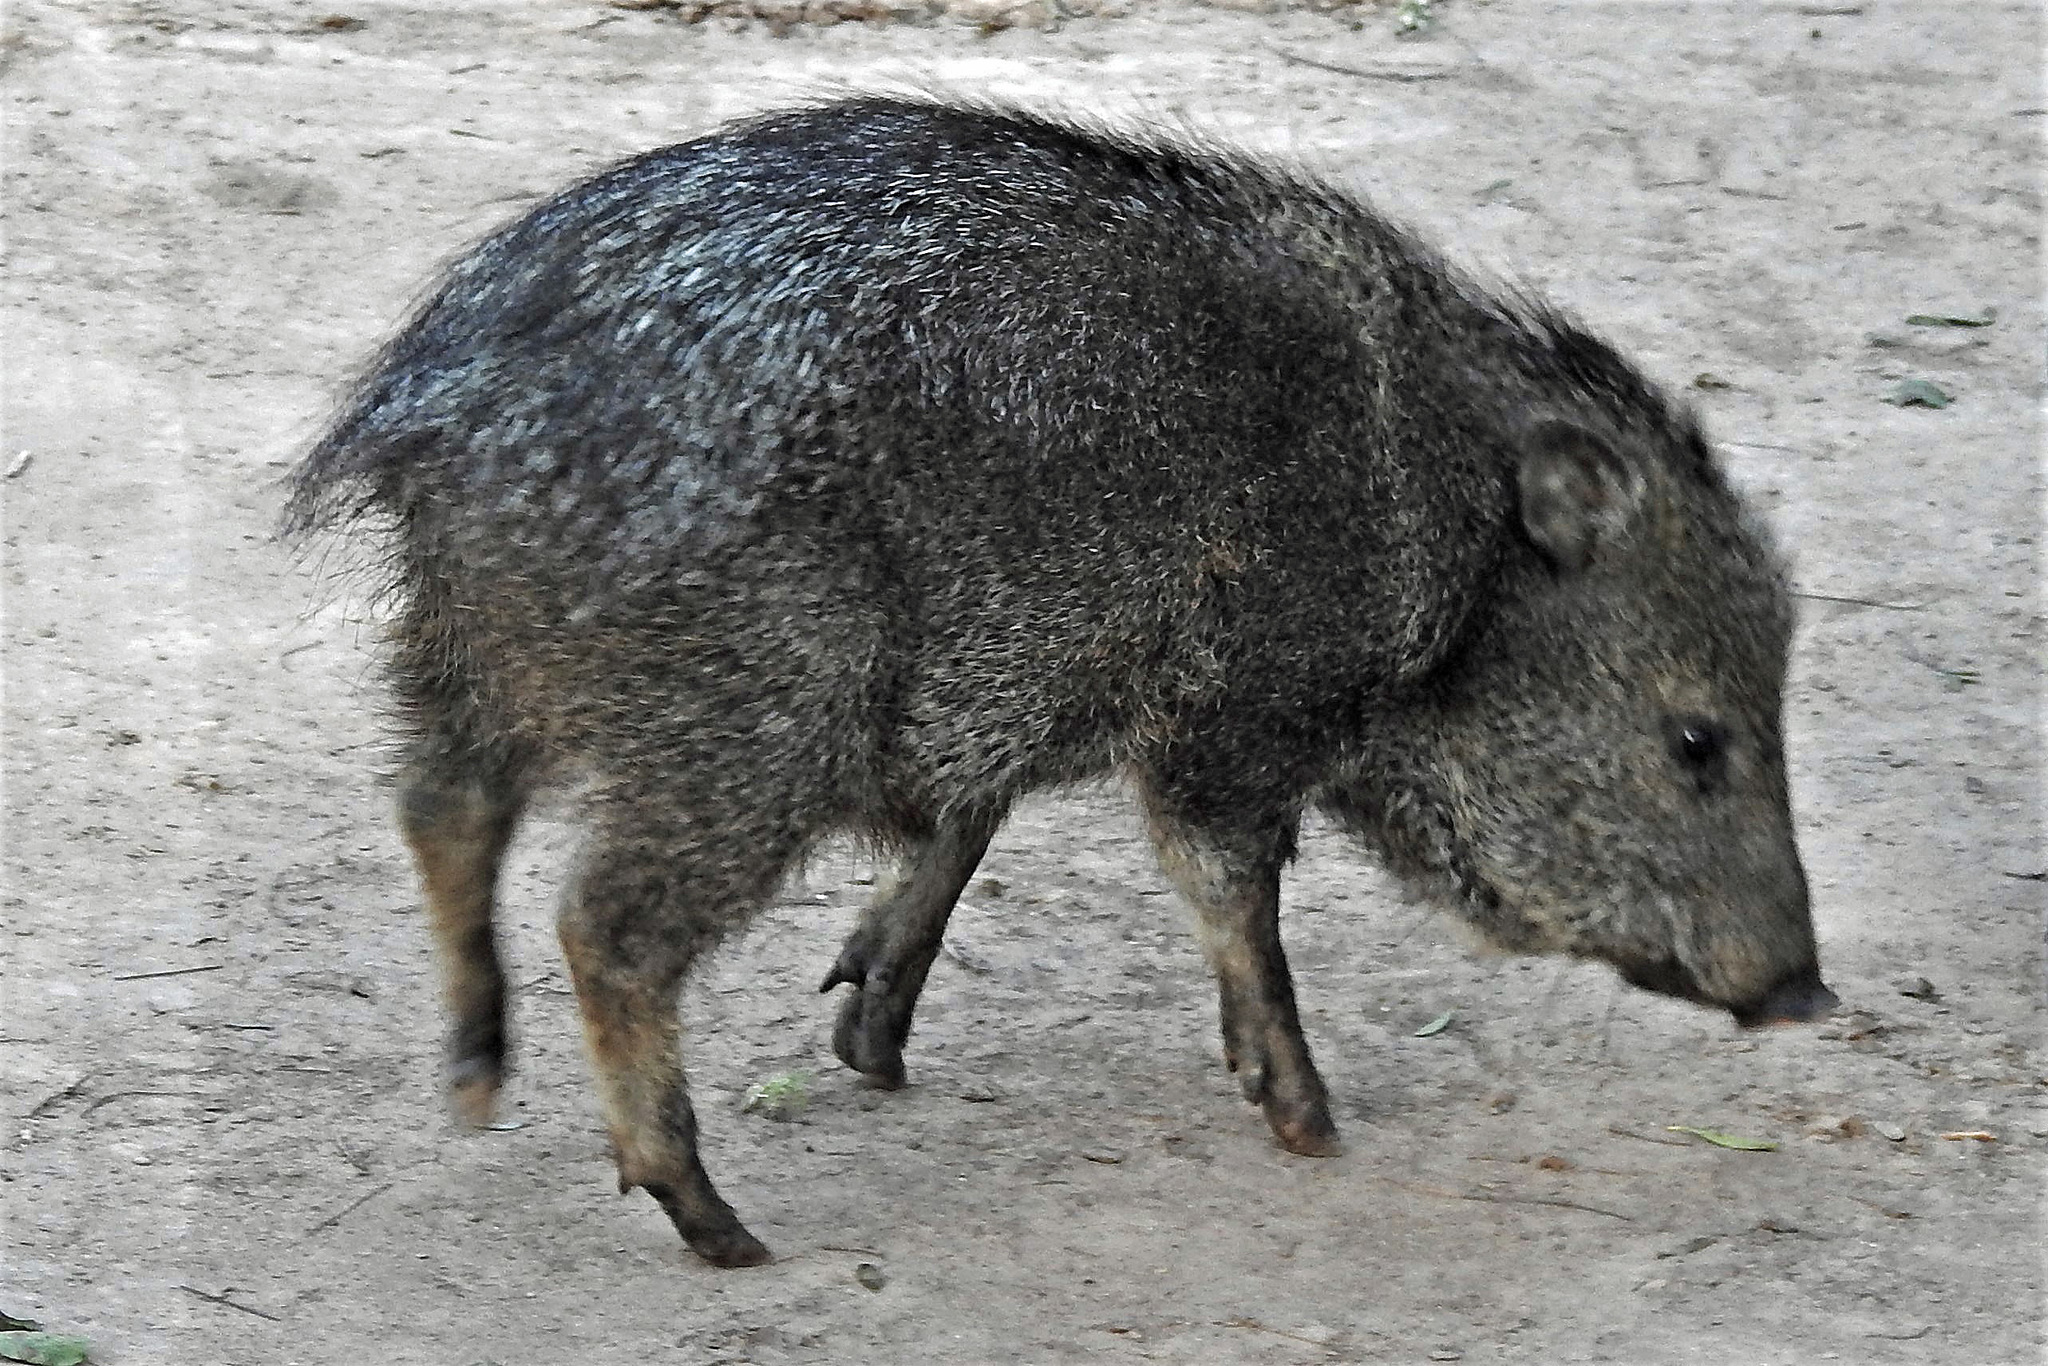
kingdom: Animalia
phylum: Chordata
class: Mammalia
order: Artiodactyla
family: Tayassuidae
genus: Pecari
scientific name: Pecari tajacu
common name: Collared peccary
